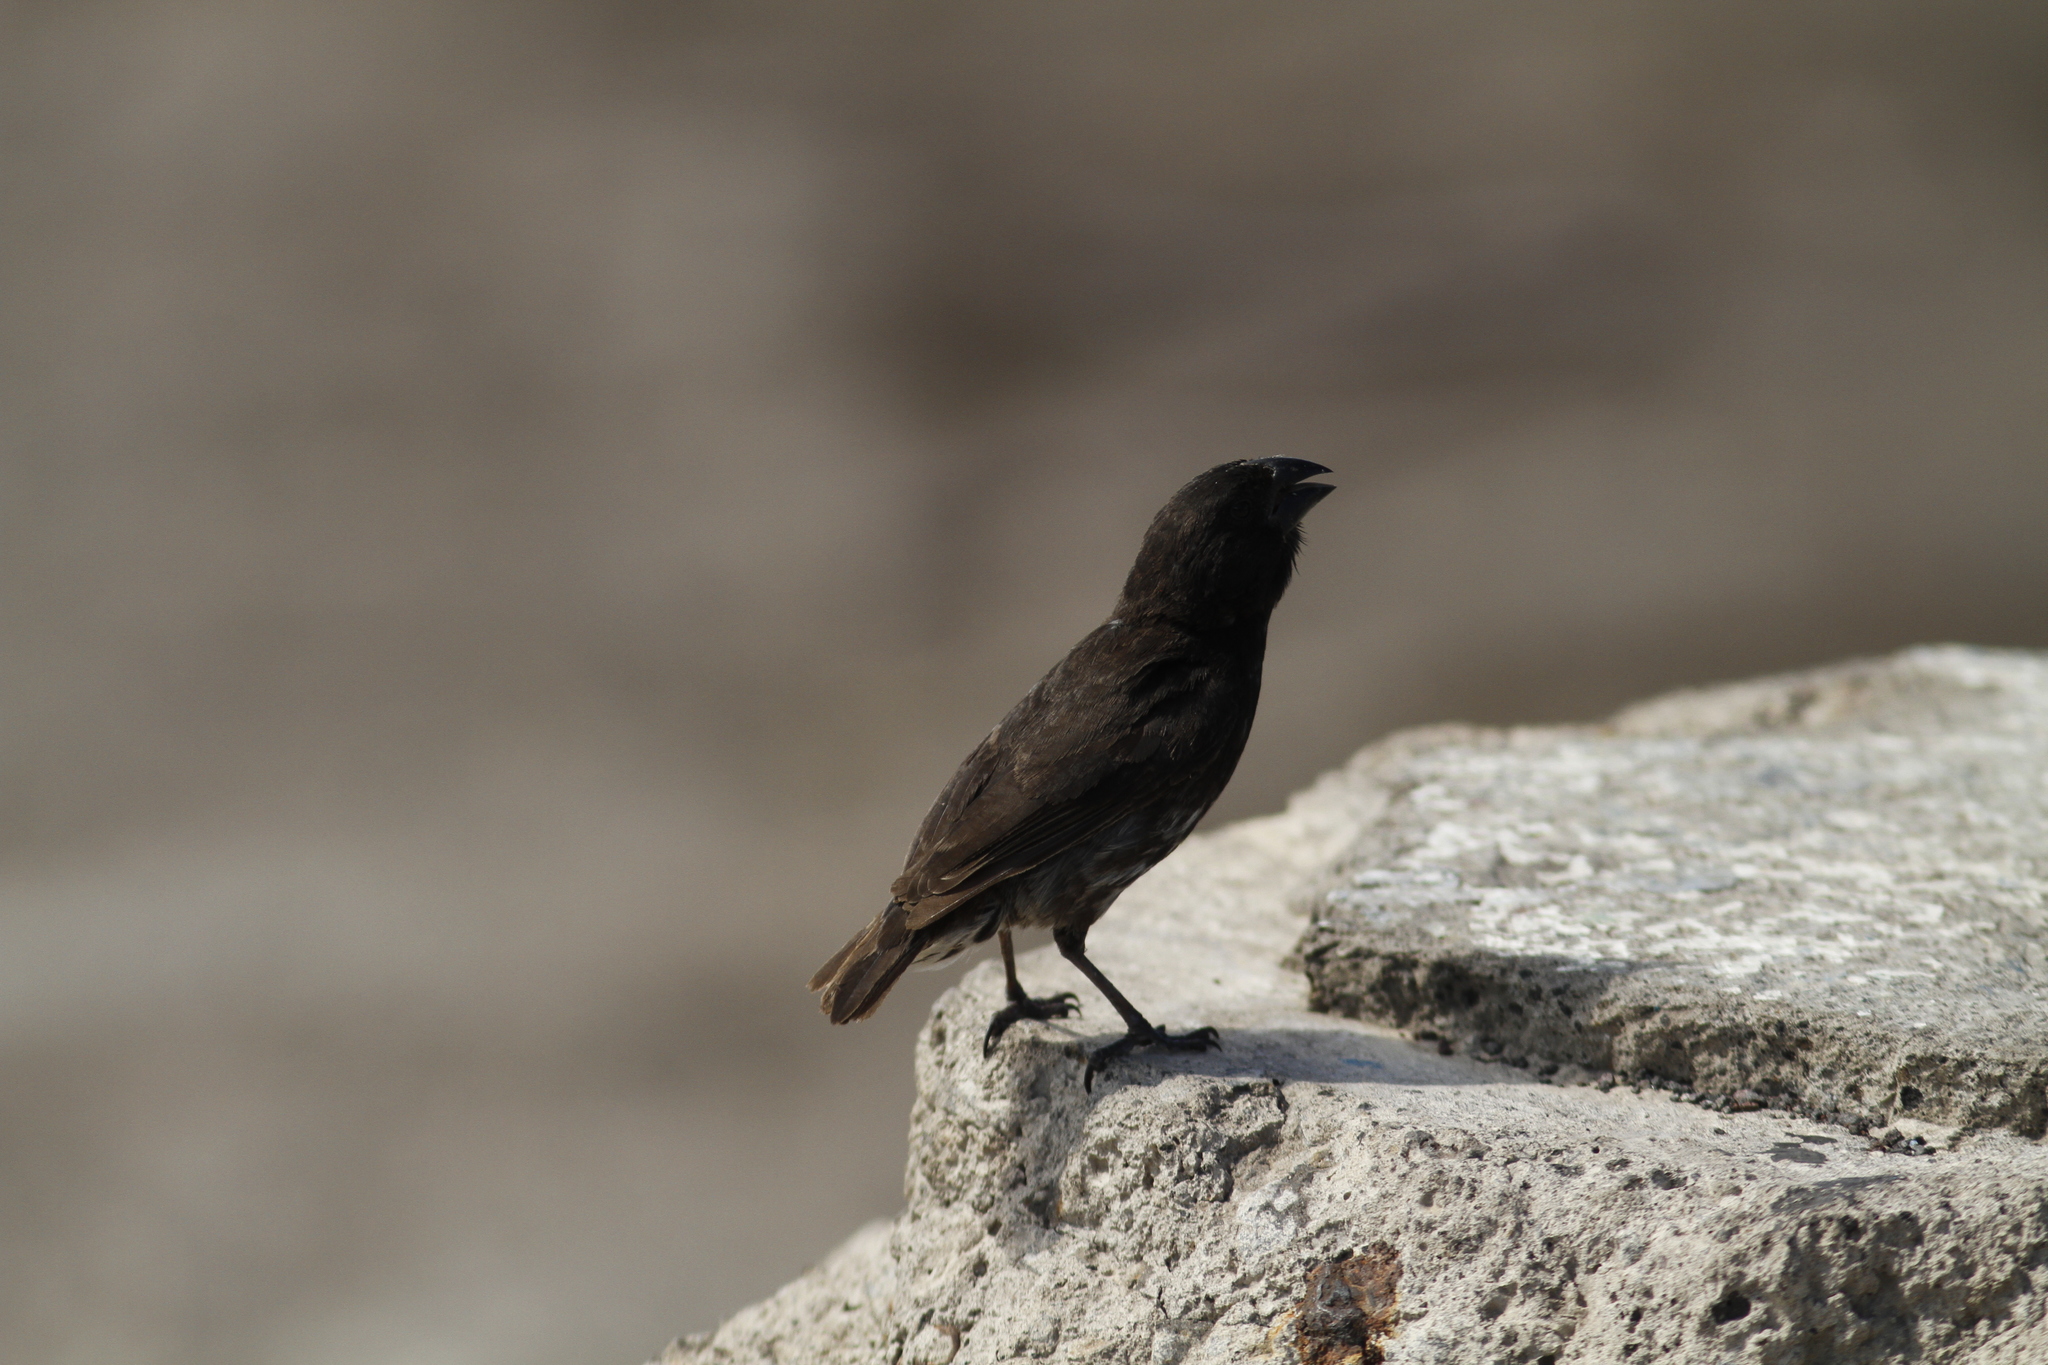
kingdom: Animalia
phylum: Chordata
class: Aves
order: Passeriformes
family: Thraupidae
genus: Geospiza
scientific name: Geospiza fortis
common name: Medium ground finch
